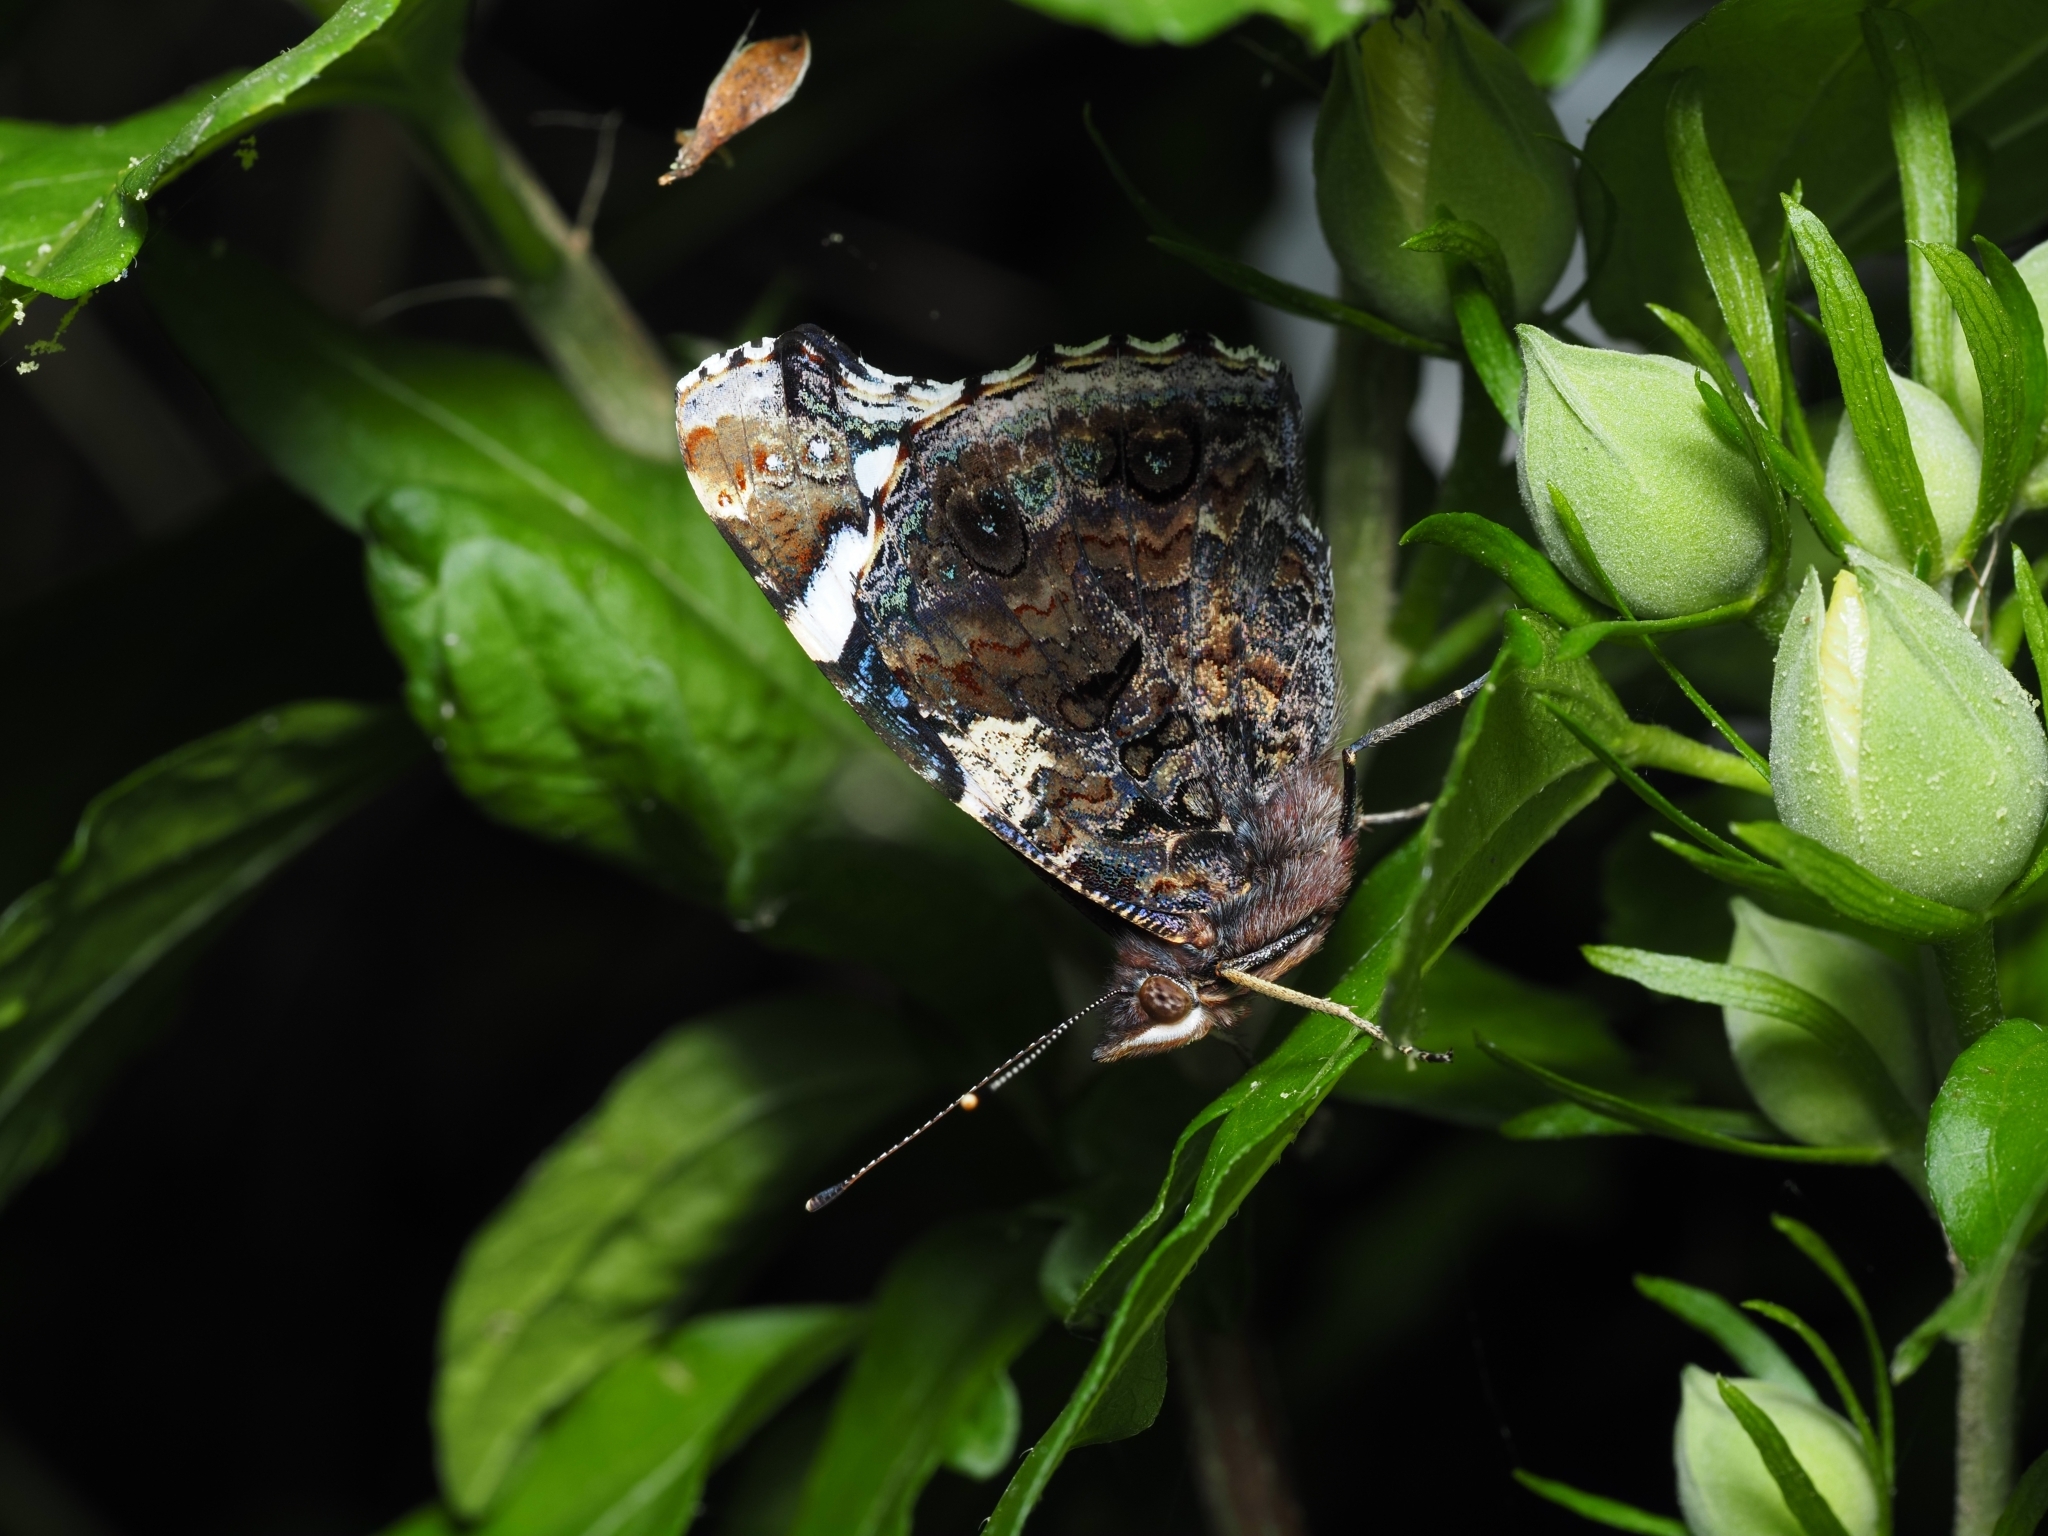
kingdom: Animalia
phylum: Arthropoda
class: Insecta
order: Lepidoptera
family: Nymphalidae
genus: Vanessa
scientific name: Vanessa atalanta
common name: Red admiral
